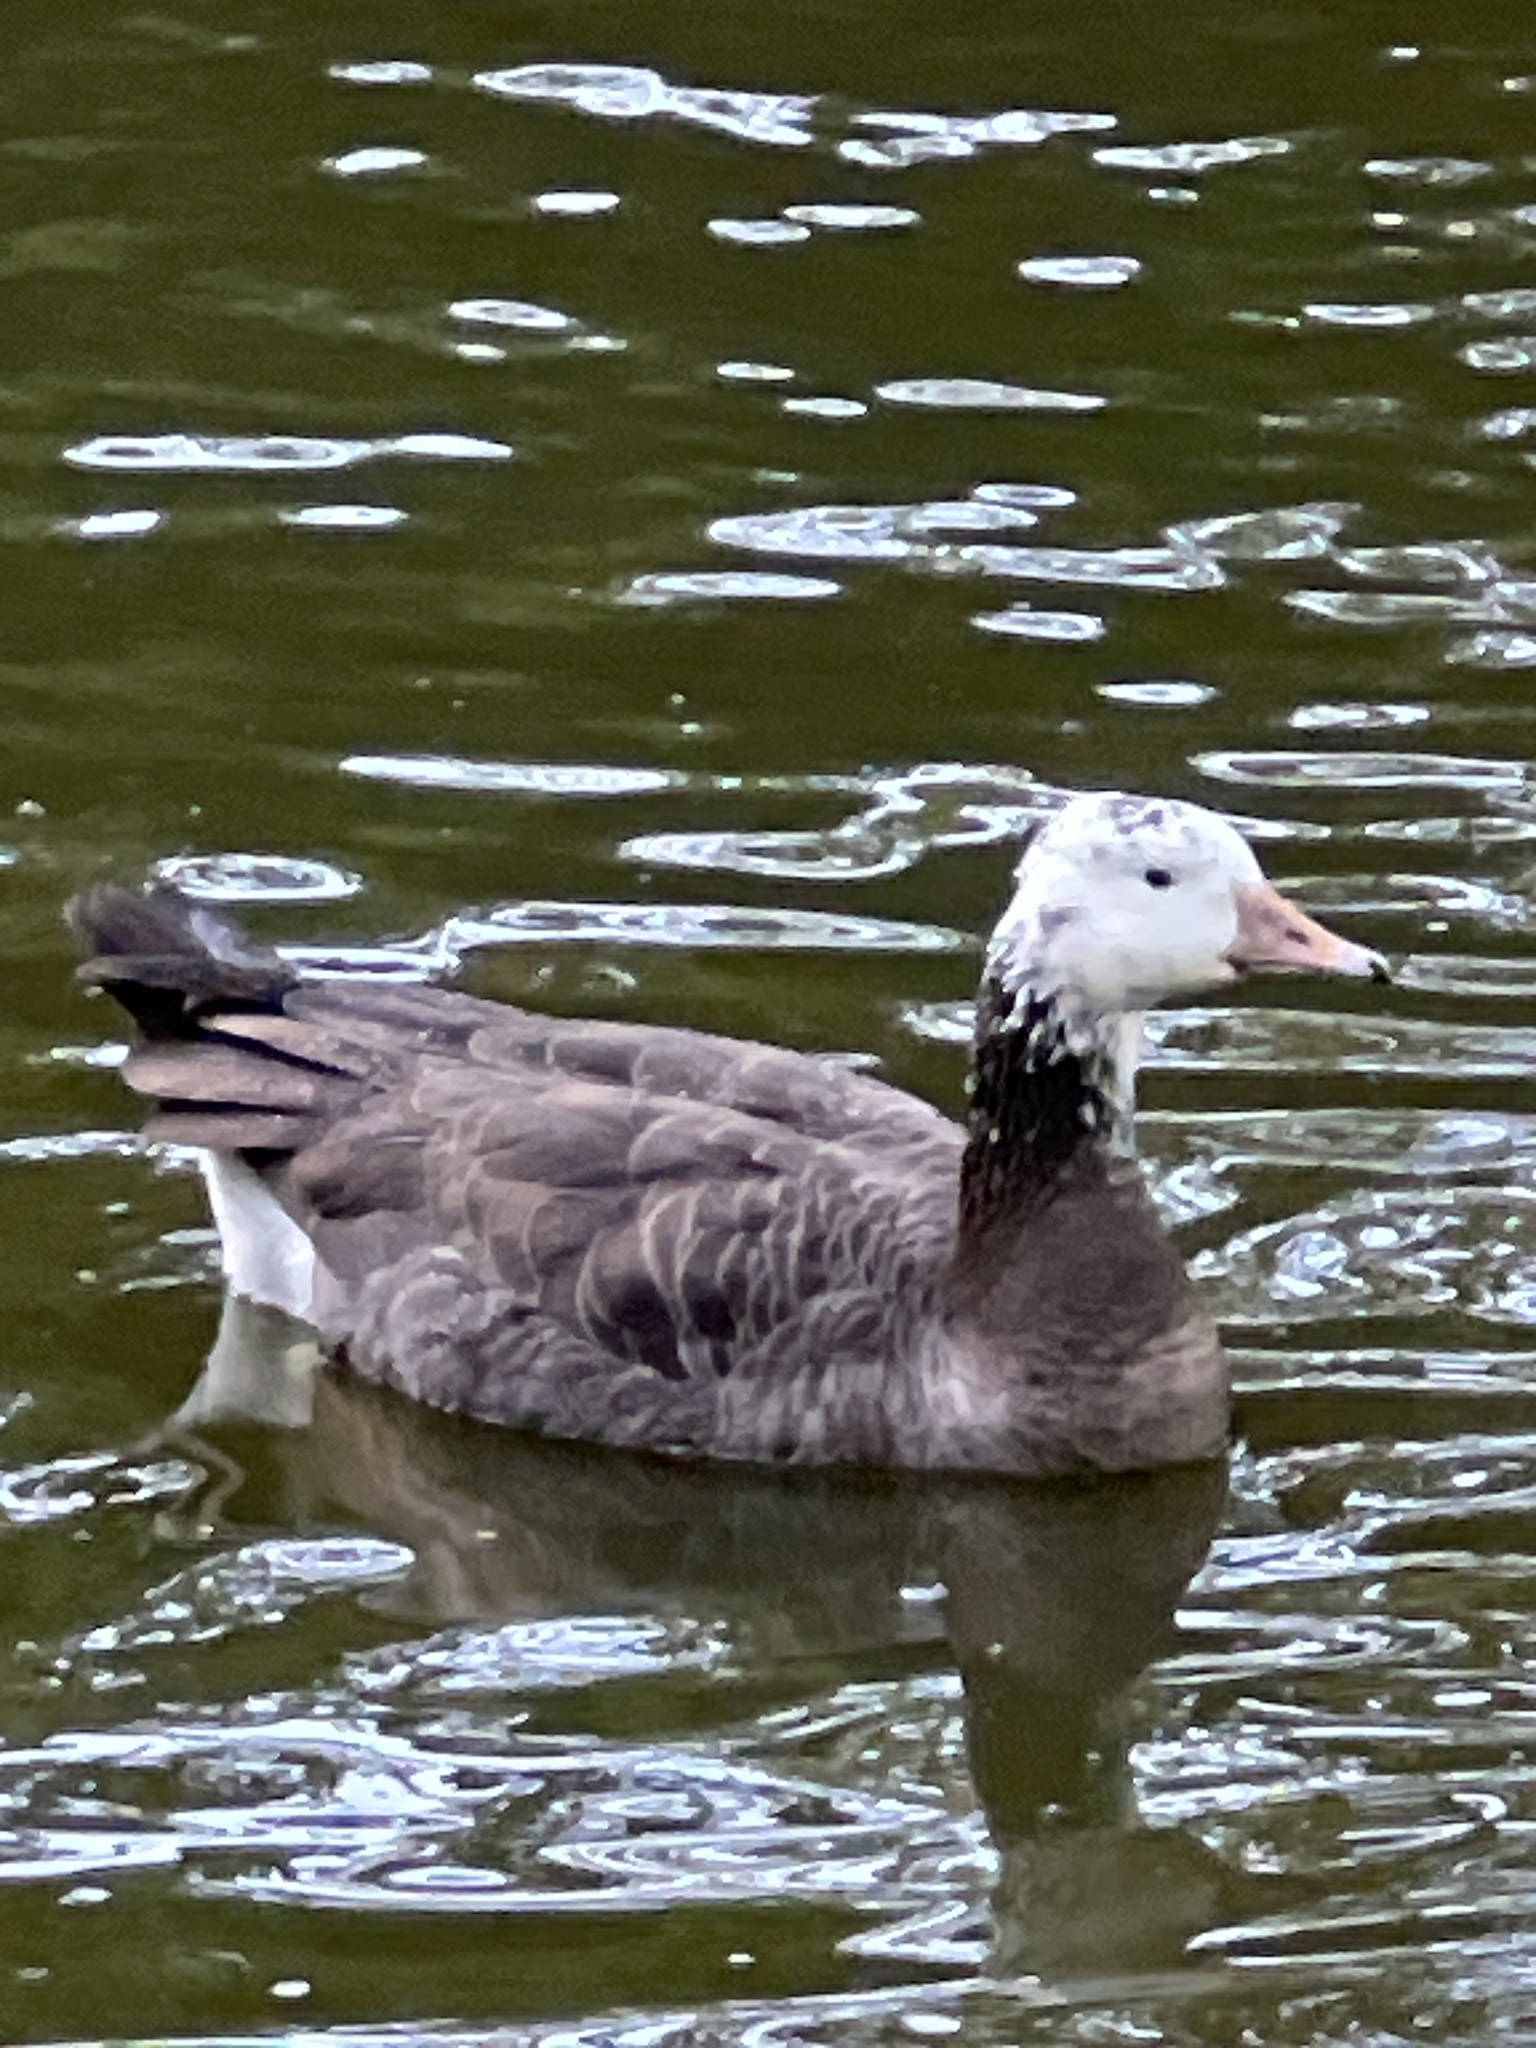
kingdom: Animalia
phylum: Chordata
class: Aves
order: Anseriformes
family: Anatidae
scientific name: Anatidae
